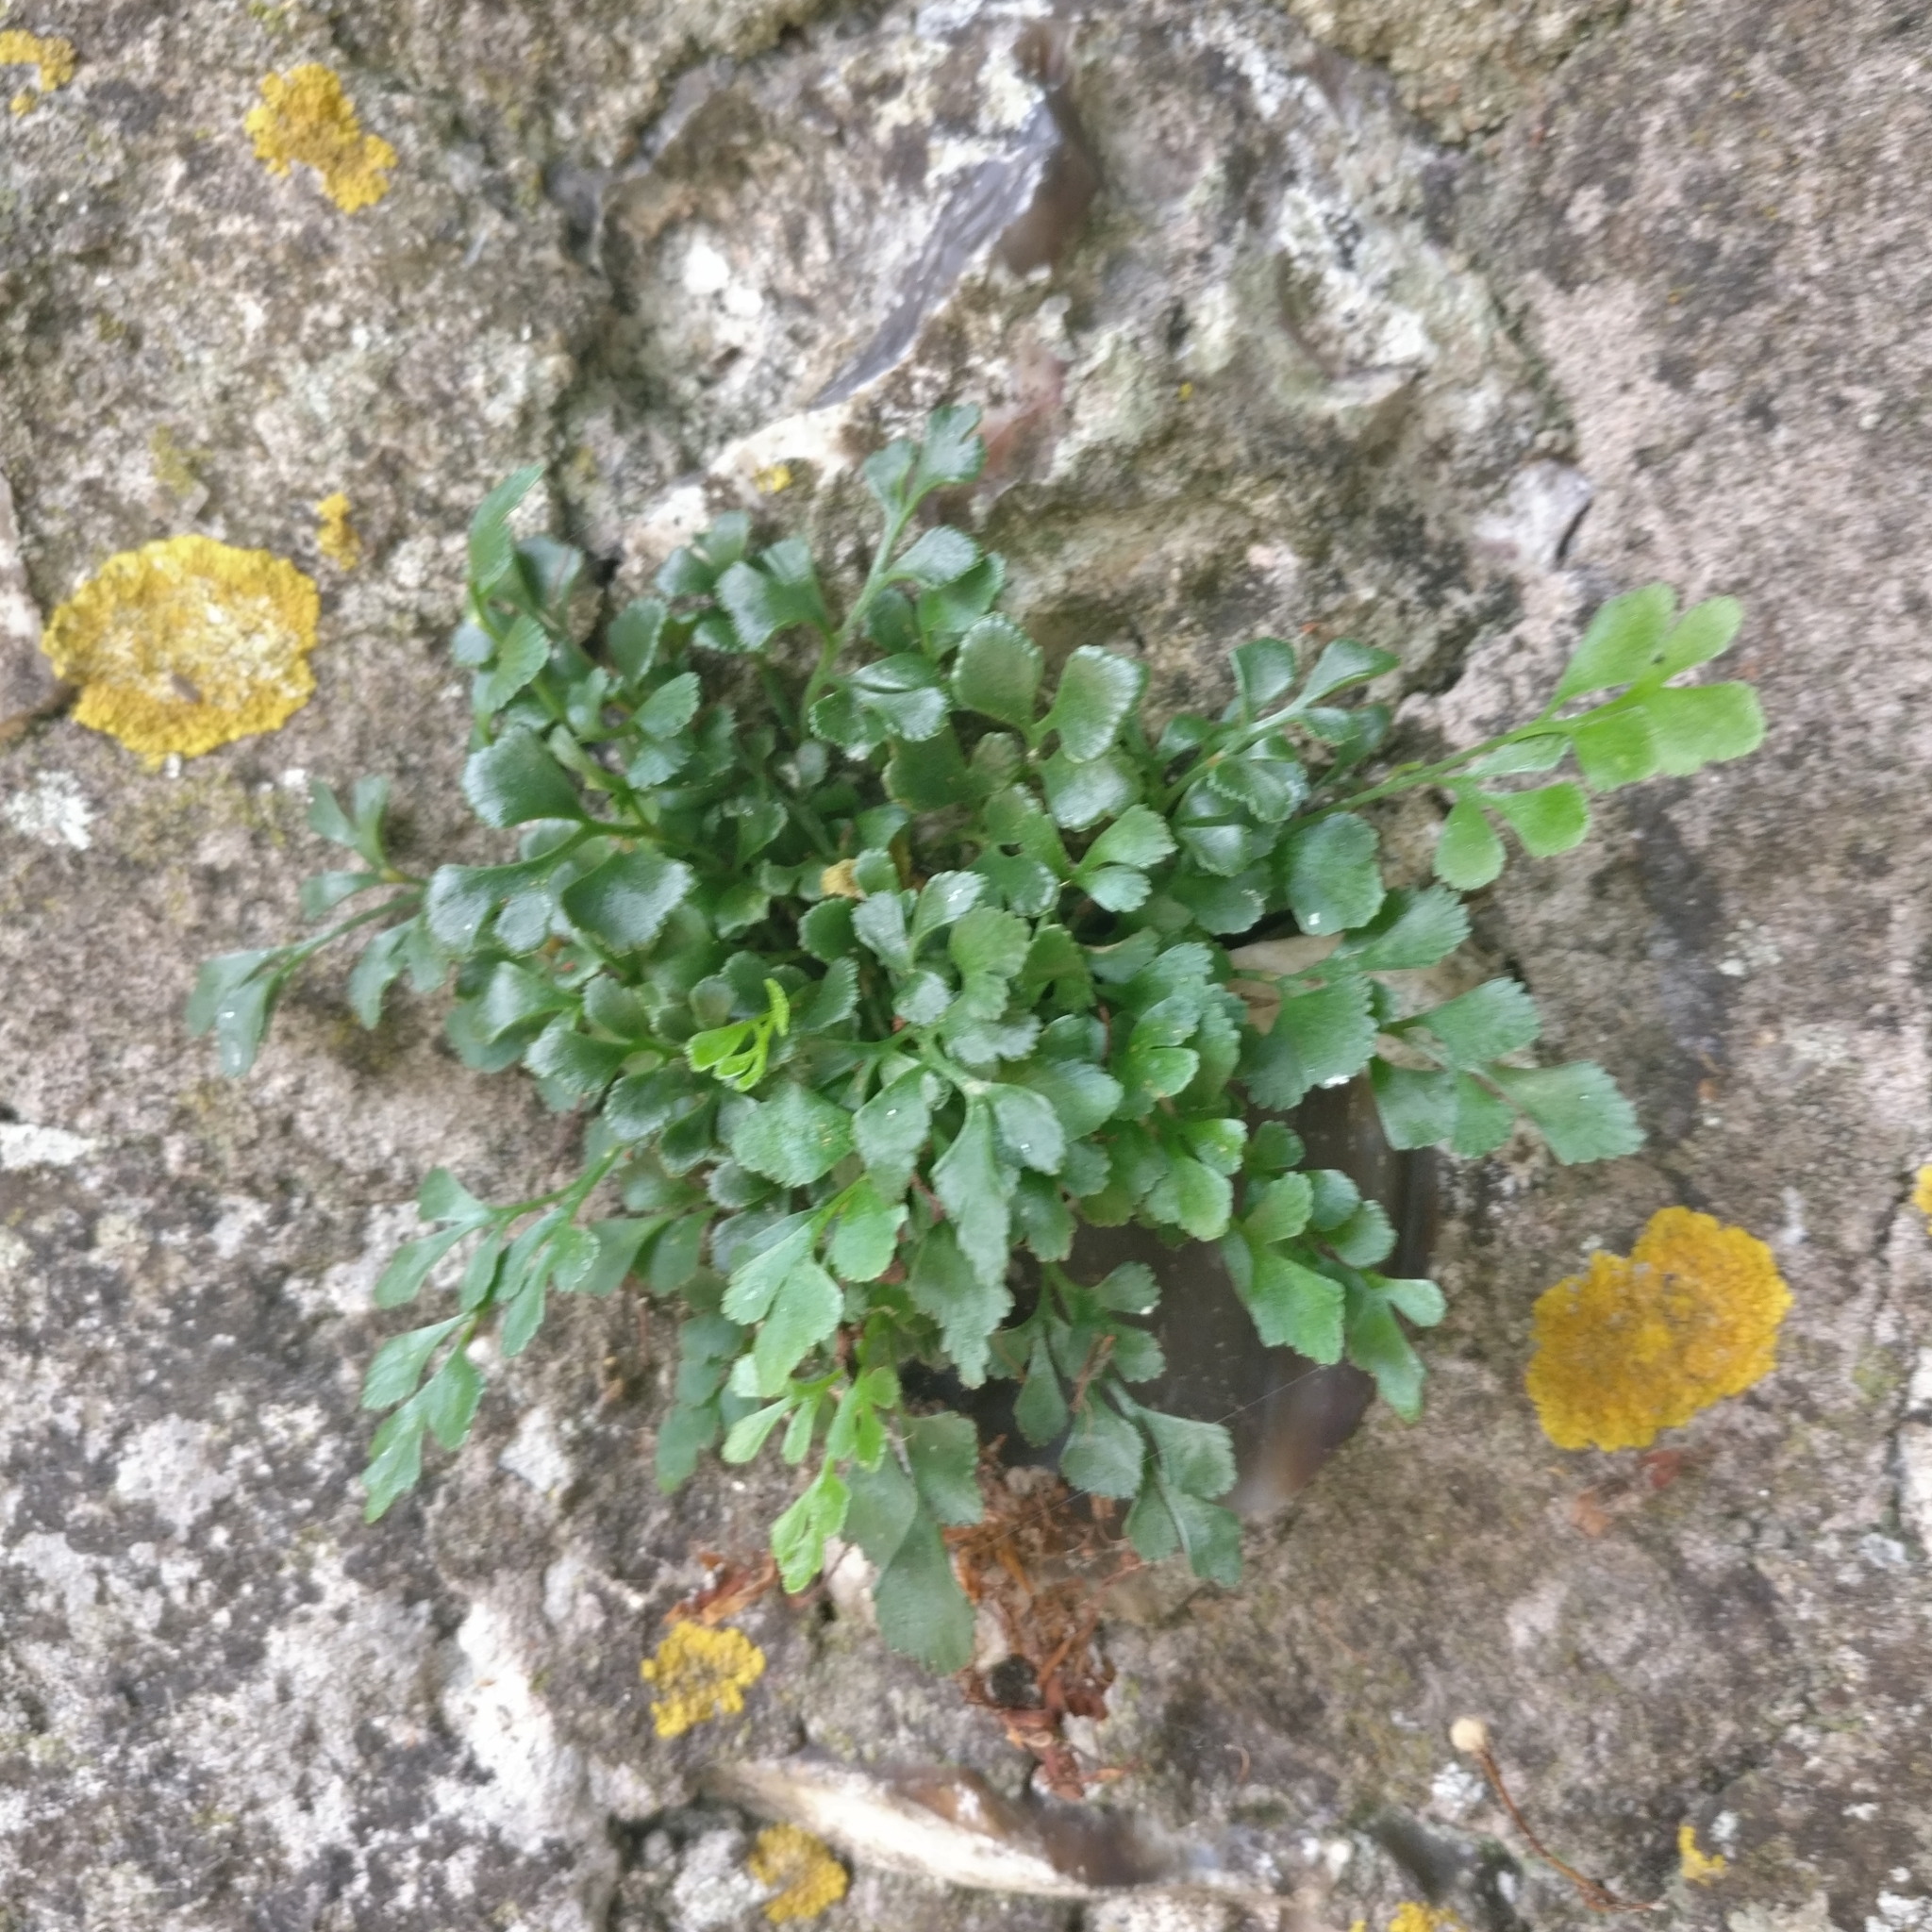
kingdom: Plantae
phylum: Tracheophyta
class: Polypodiopsida
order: Polypodiales
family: Aspleniaceae
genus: Asplenium
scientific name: Asplenium ruta-muraria
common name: Wall-rue
